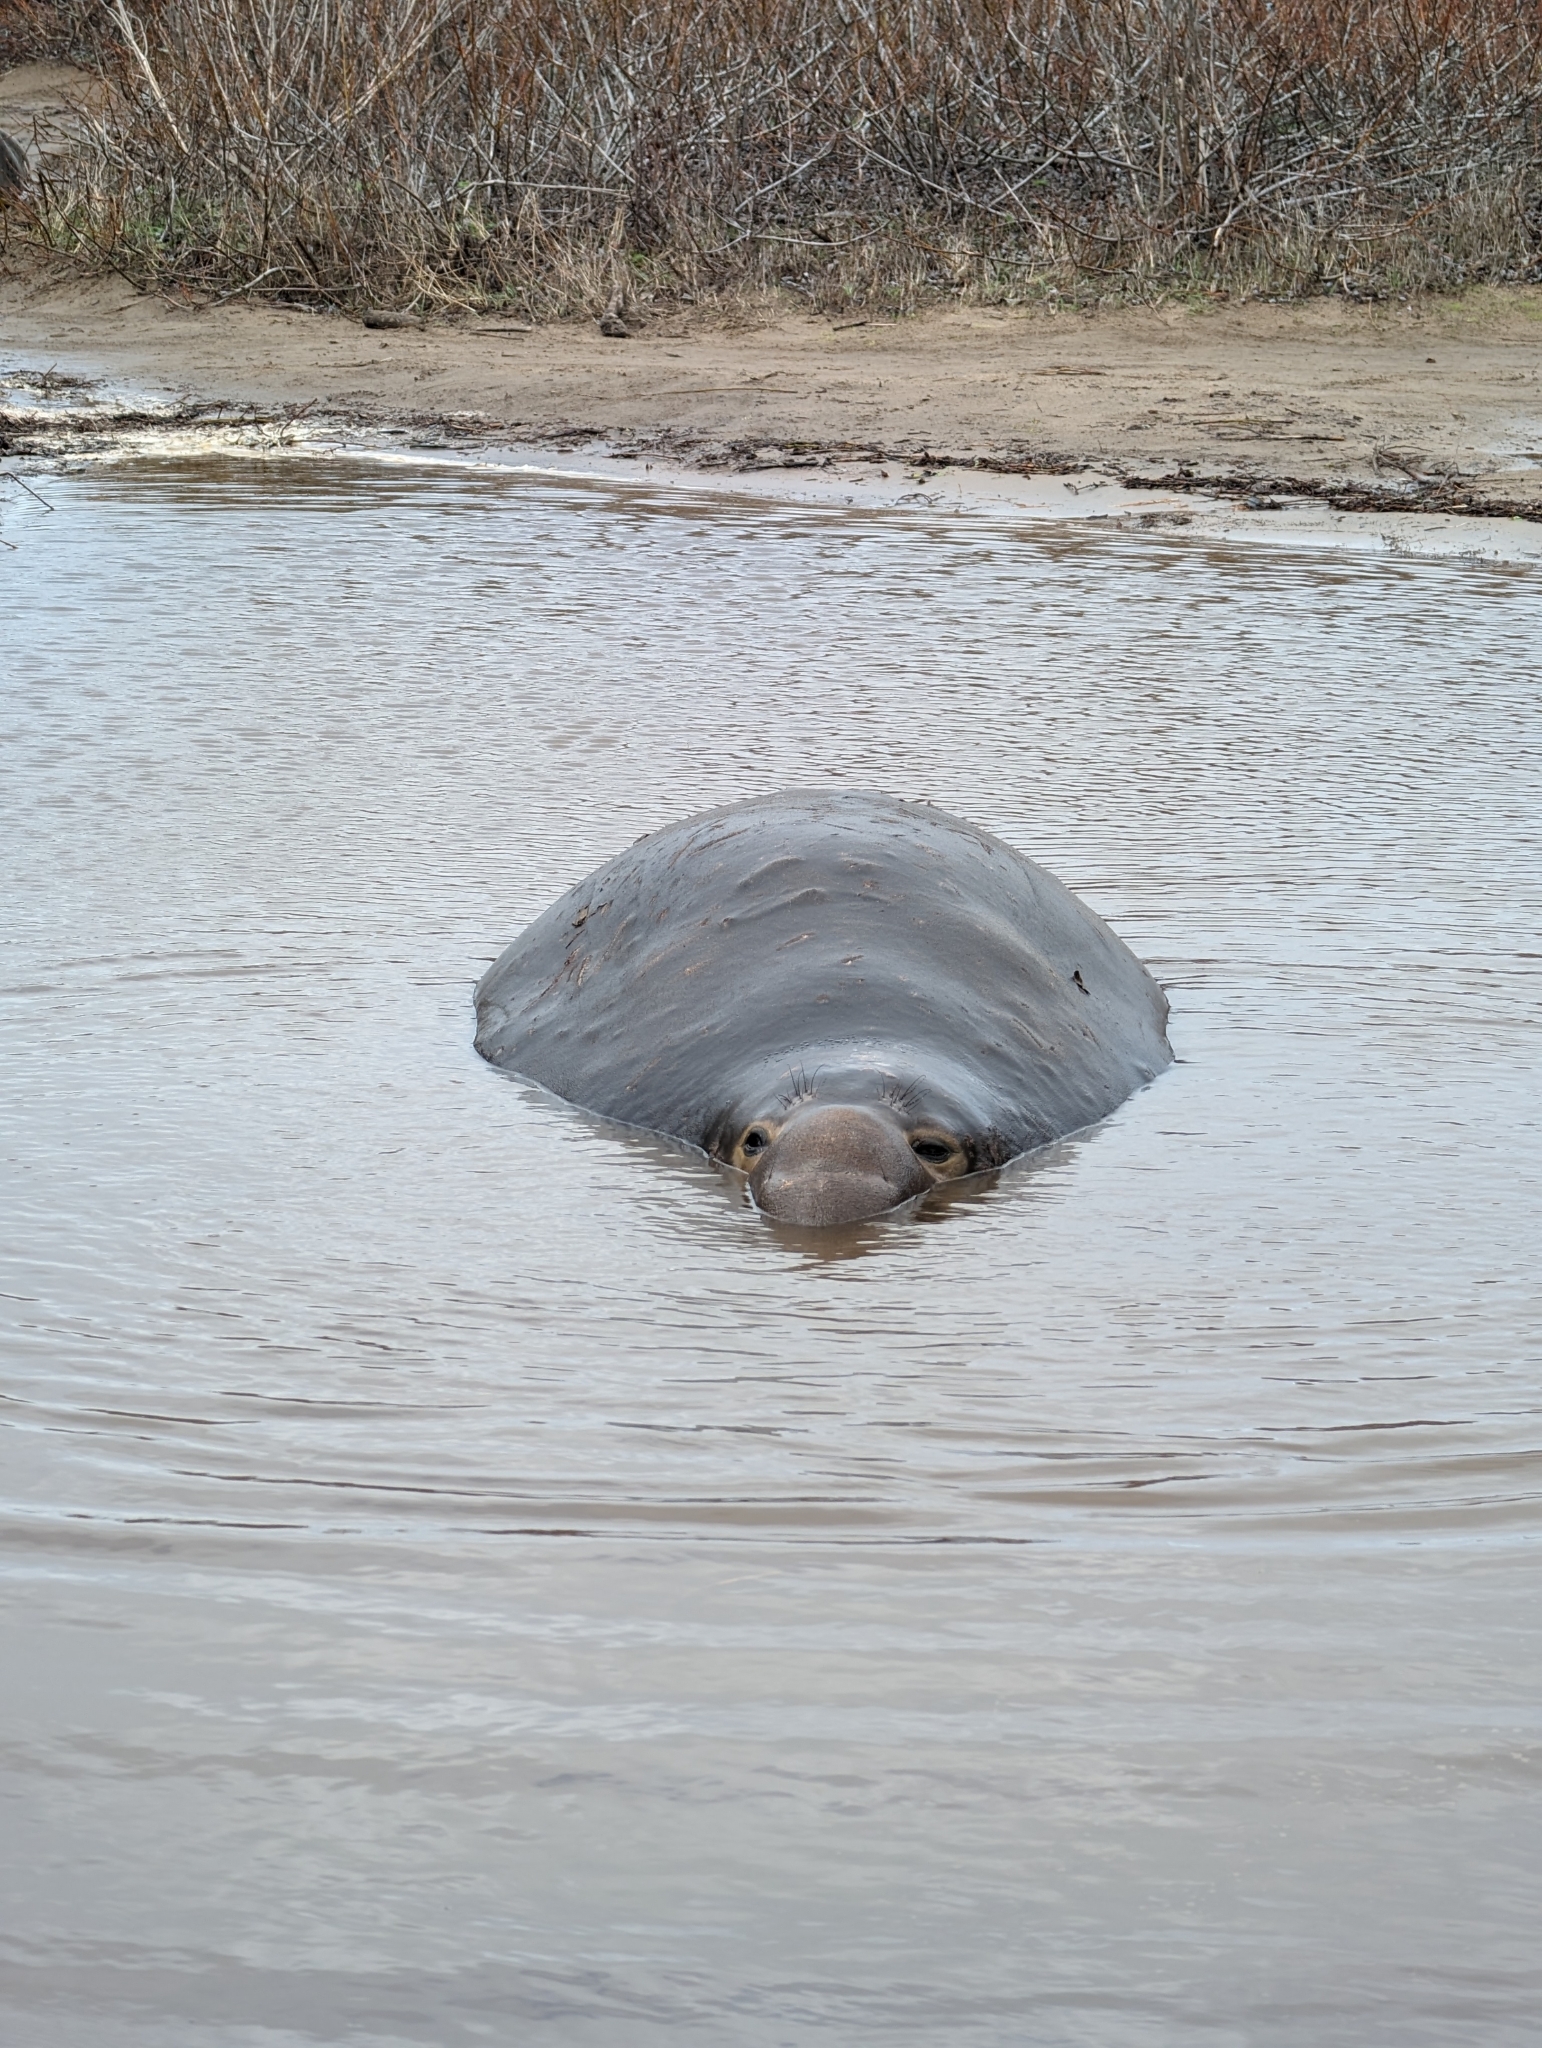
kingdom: Animalia
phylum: Chordata
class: Mammalia
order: Carnivora
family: Phocidae
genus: Mirounga
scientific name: Mirounga angustirostris
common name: Northern elephant seal
